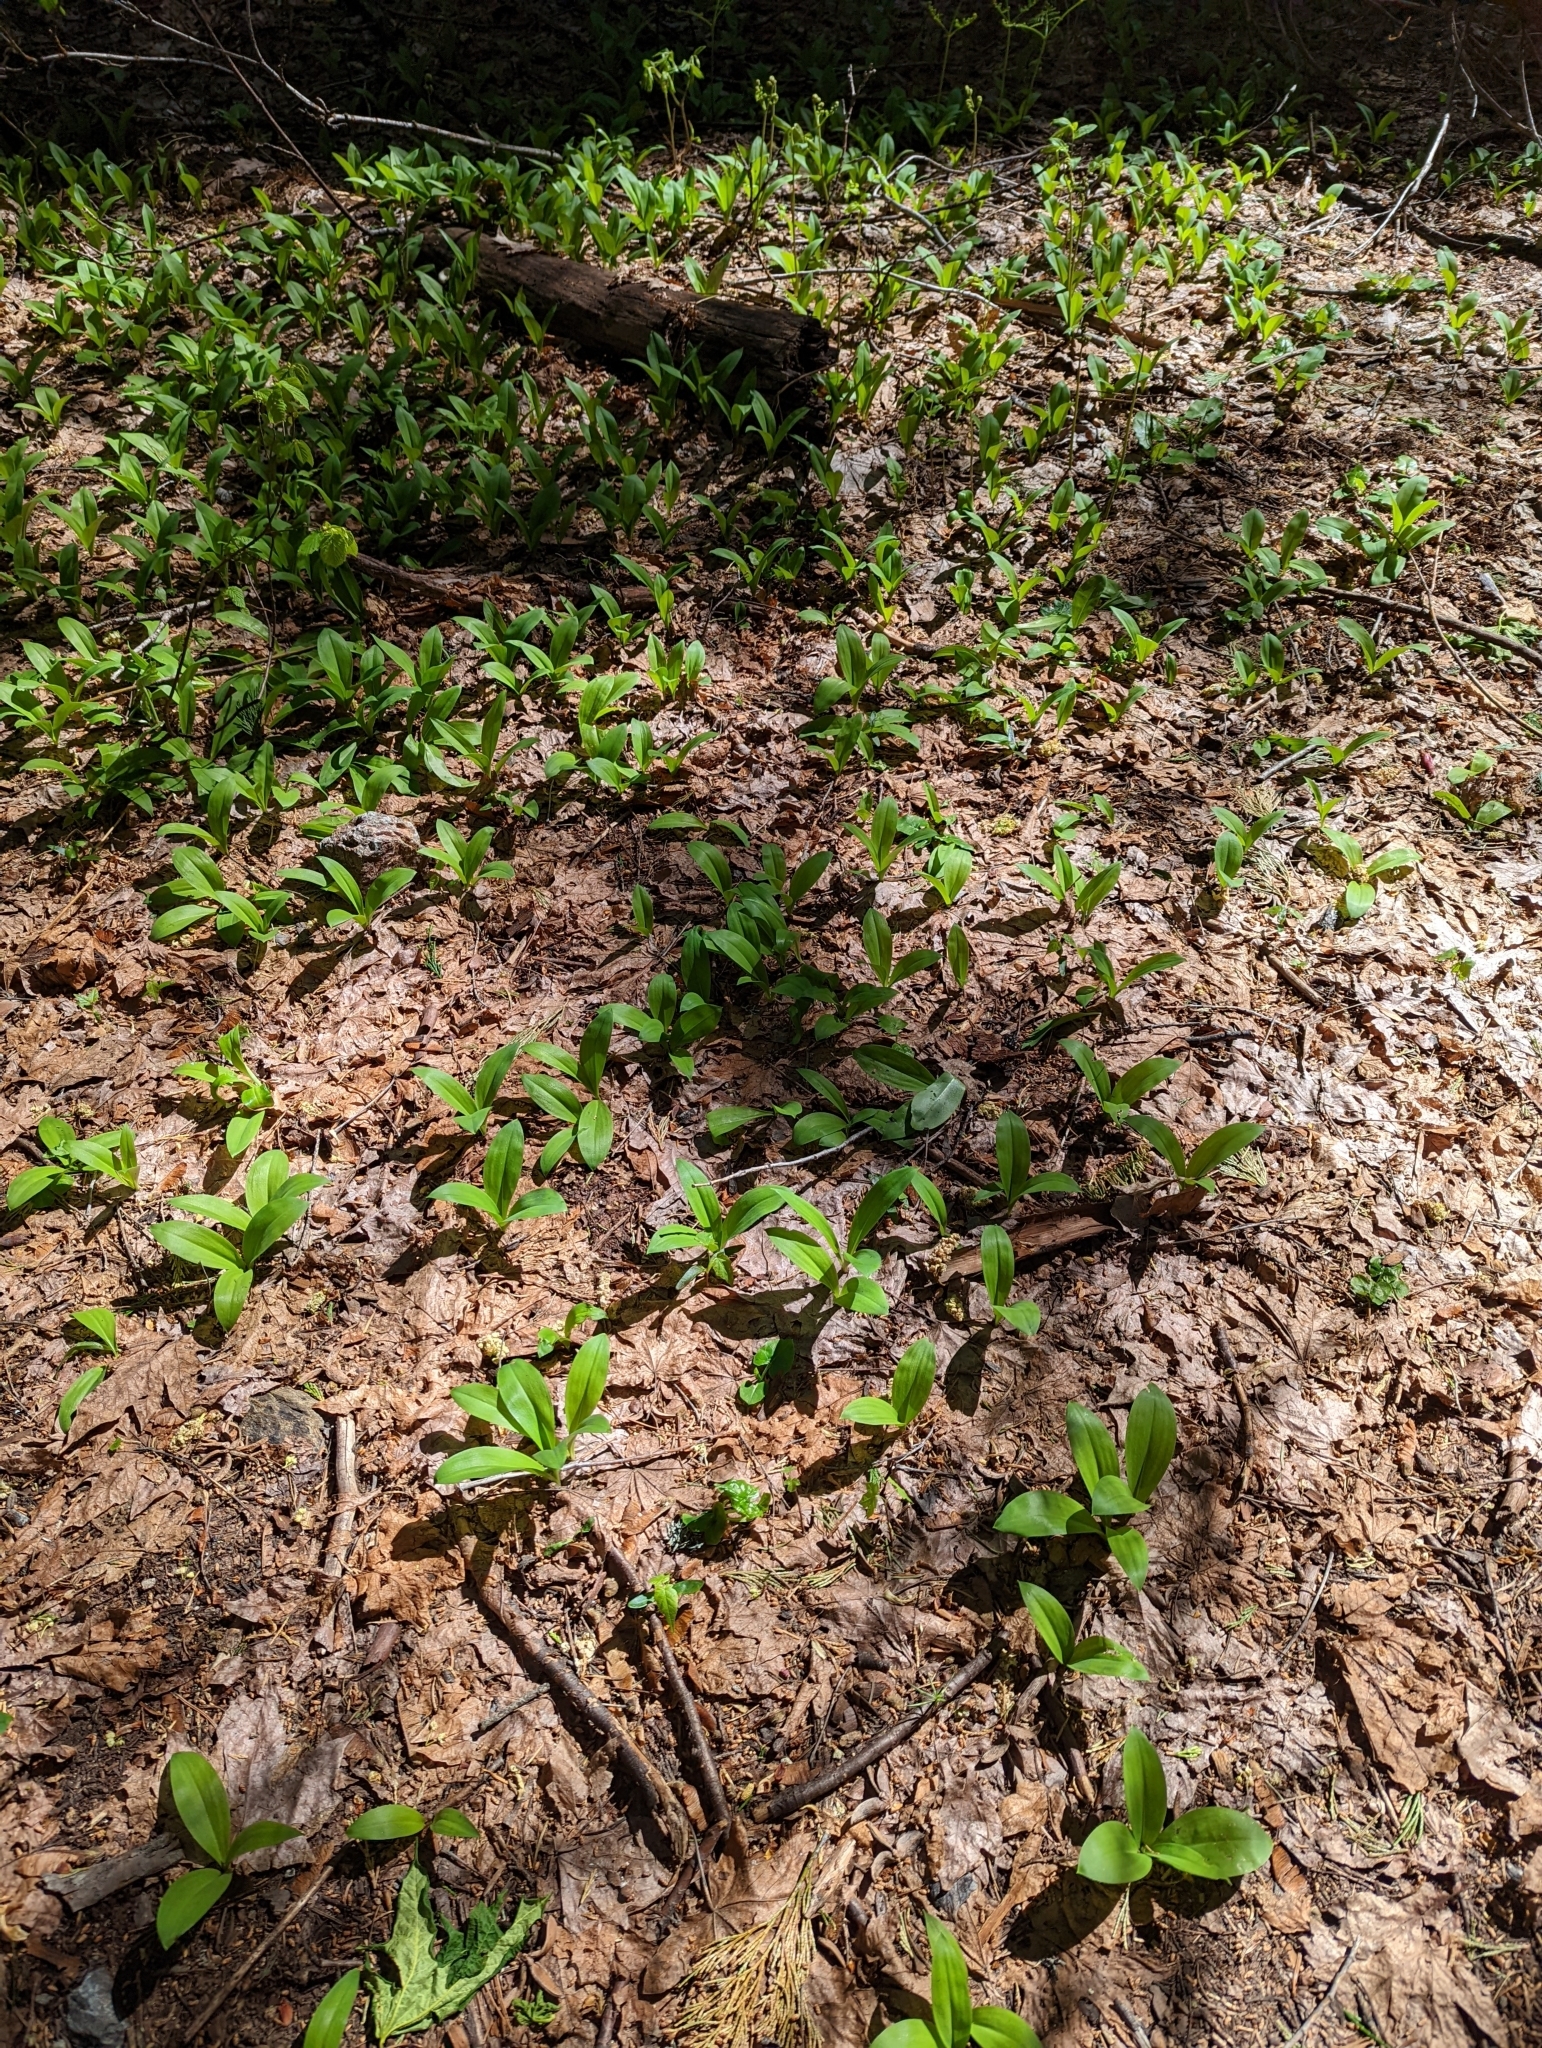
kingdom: Plantae
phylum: Tracheophyta
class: Liliopsida
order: Liliales
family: Liliaceae
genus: Clintonia
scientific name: Clintonia uniflora
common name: Queen's cup
